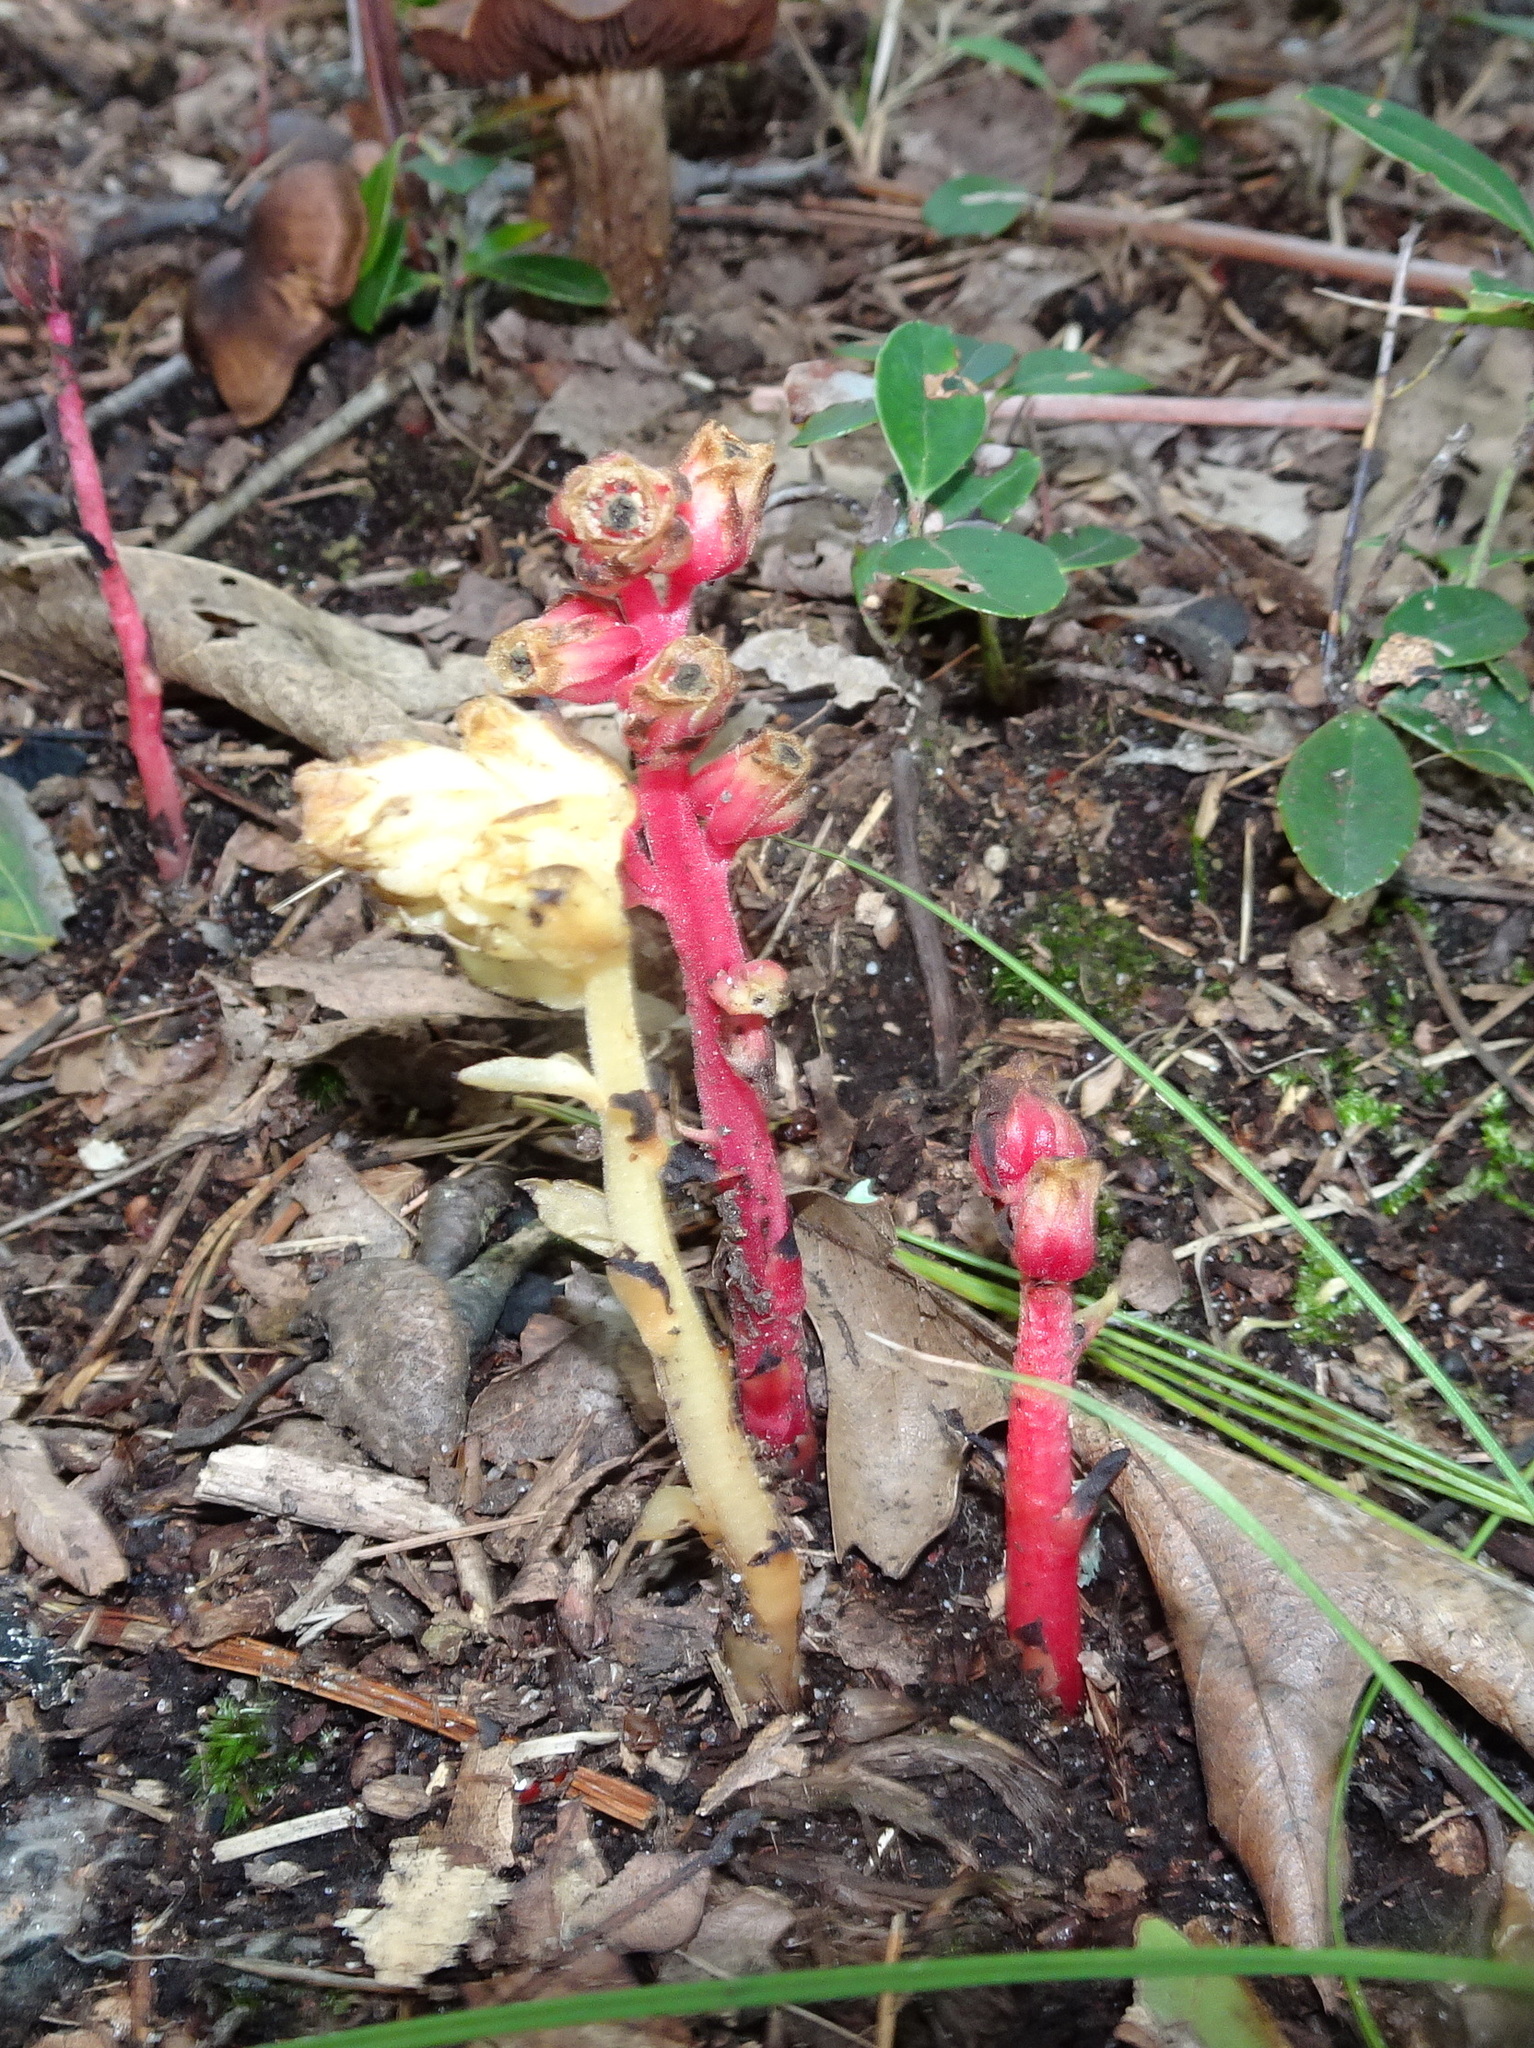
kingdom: Plantae
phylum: Tracheophyta
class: Magnoliopsida
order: Ericales
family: Ericaceae
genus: Hypopitys
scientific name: Hypopitys monotropa
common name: Yellow bird's-nest
